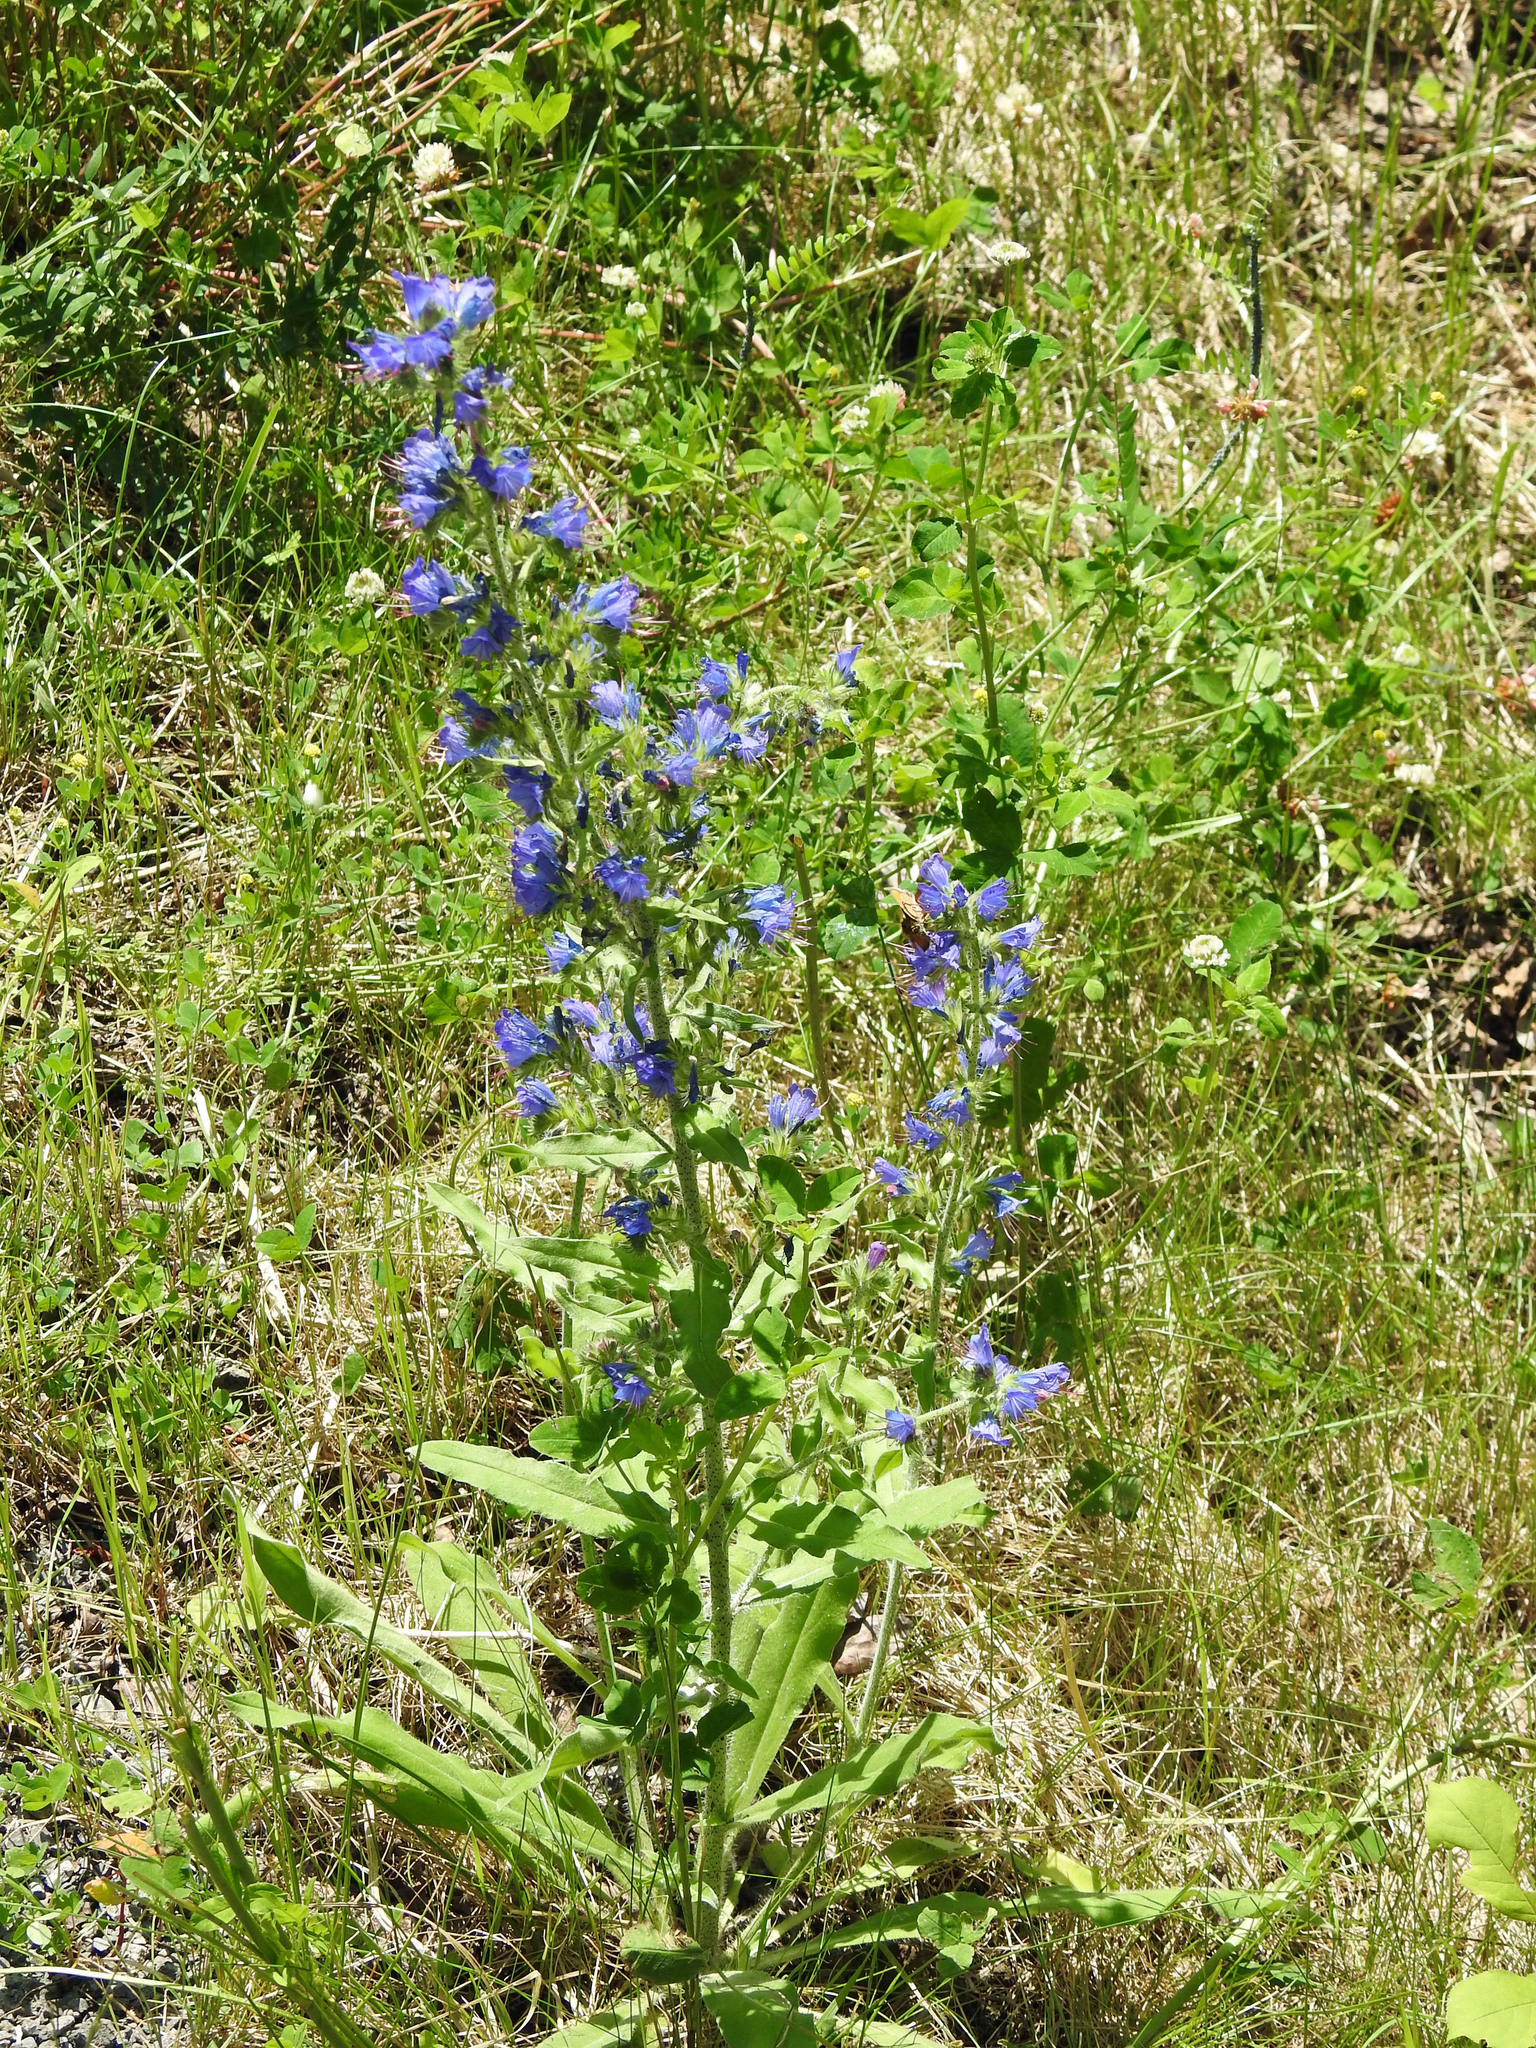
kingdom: Plantae
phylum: Tracheophyta
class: Magnoliopsida
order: Boraginales
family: Boraginaceae
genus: Echium
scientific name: Echium vulgare
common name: Common viper's bugloss
